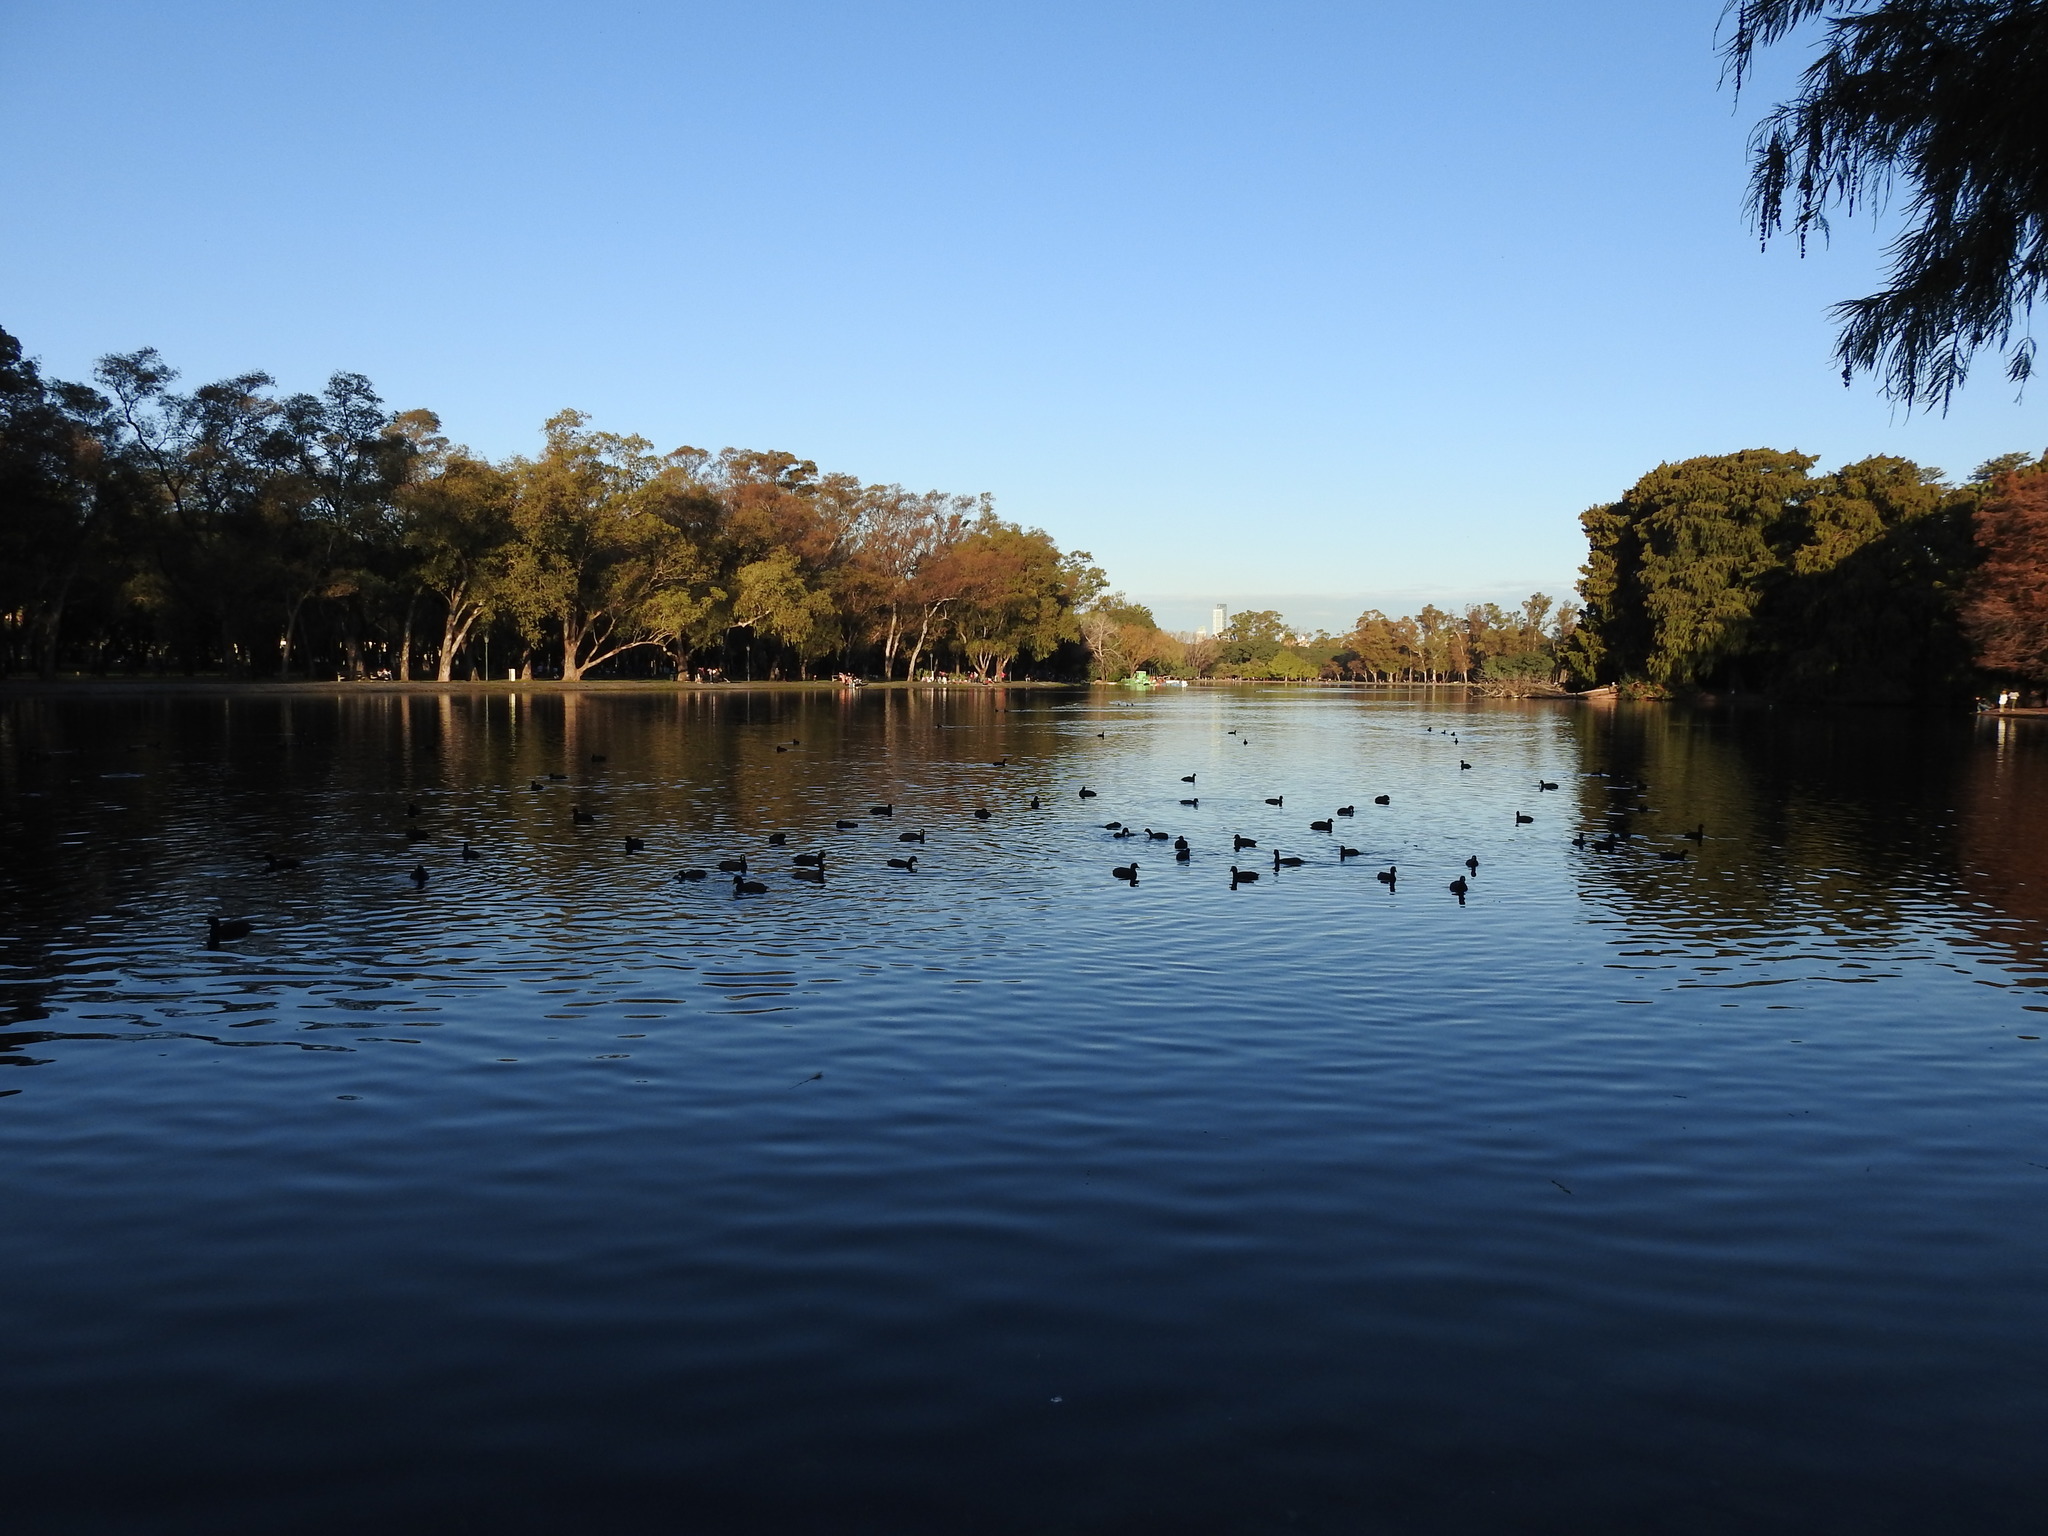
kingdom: Animalia
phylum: Chordata
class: Aves
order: Gruiformes
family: Rallidae
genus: Fulica
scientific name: Fulica armillata
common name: Red-gartered coot
